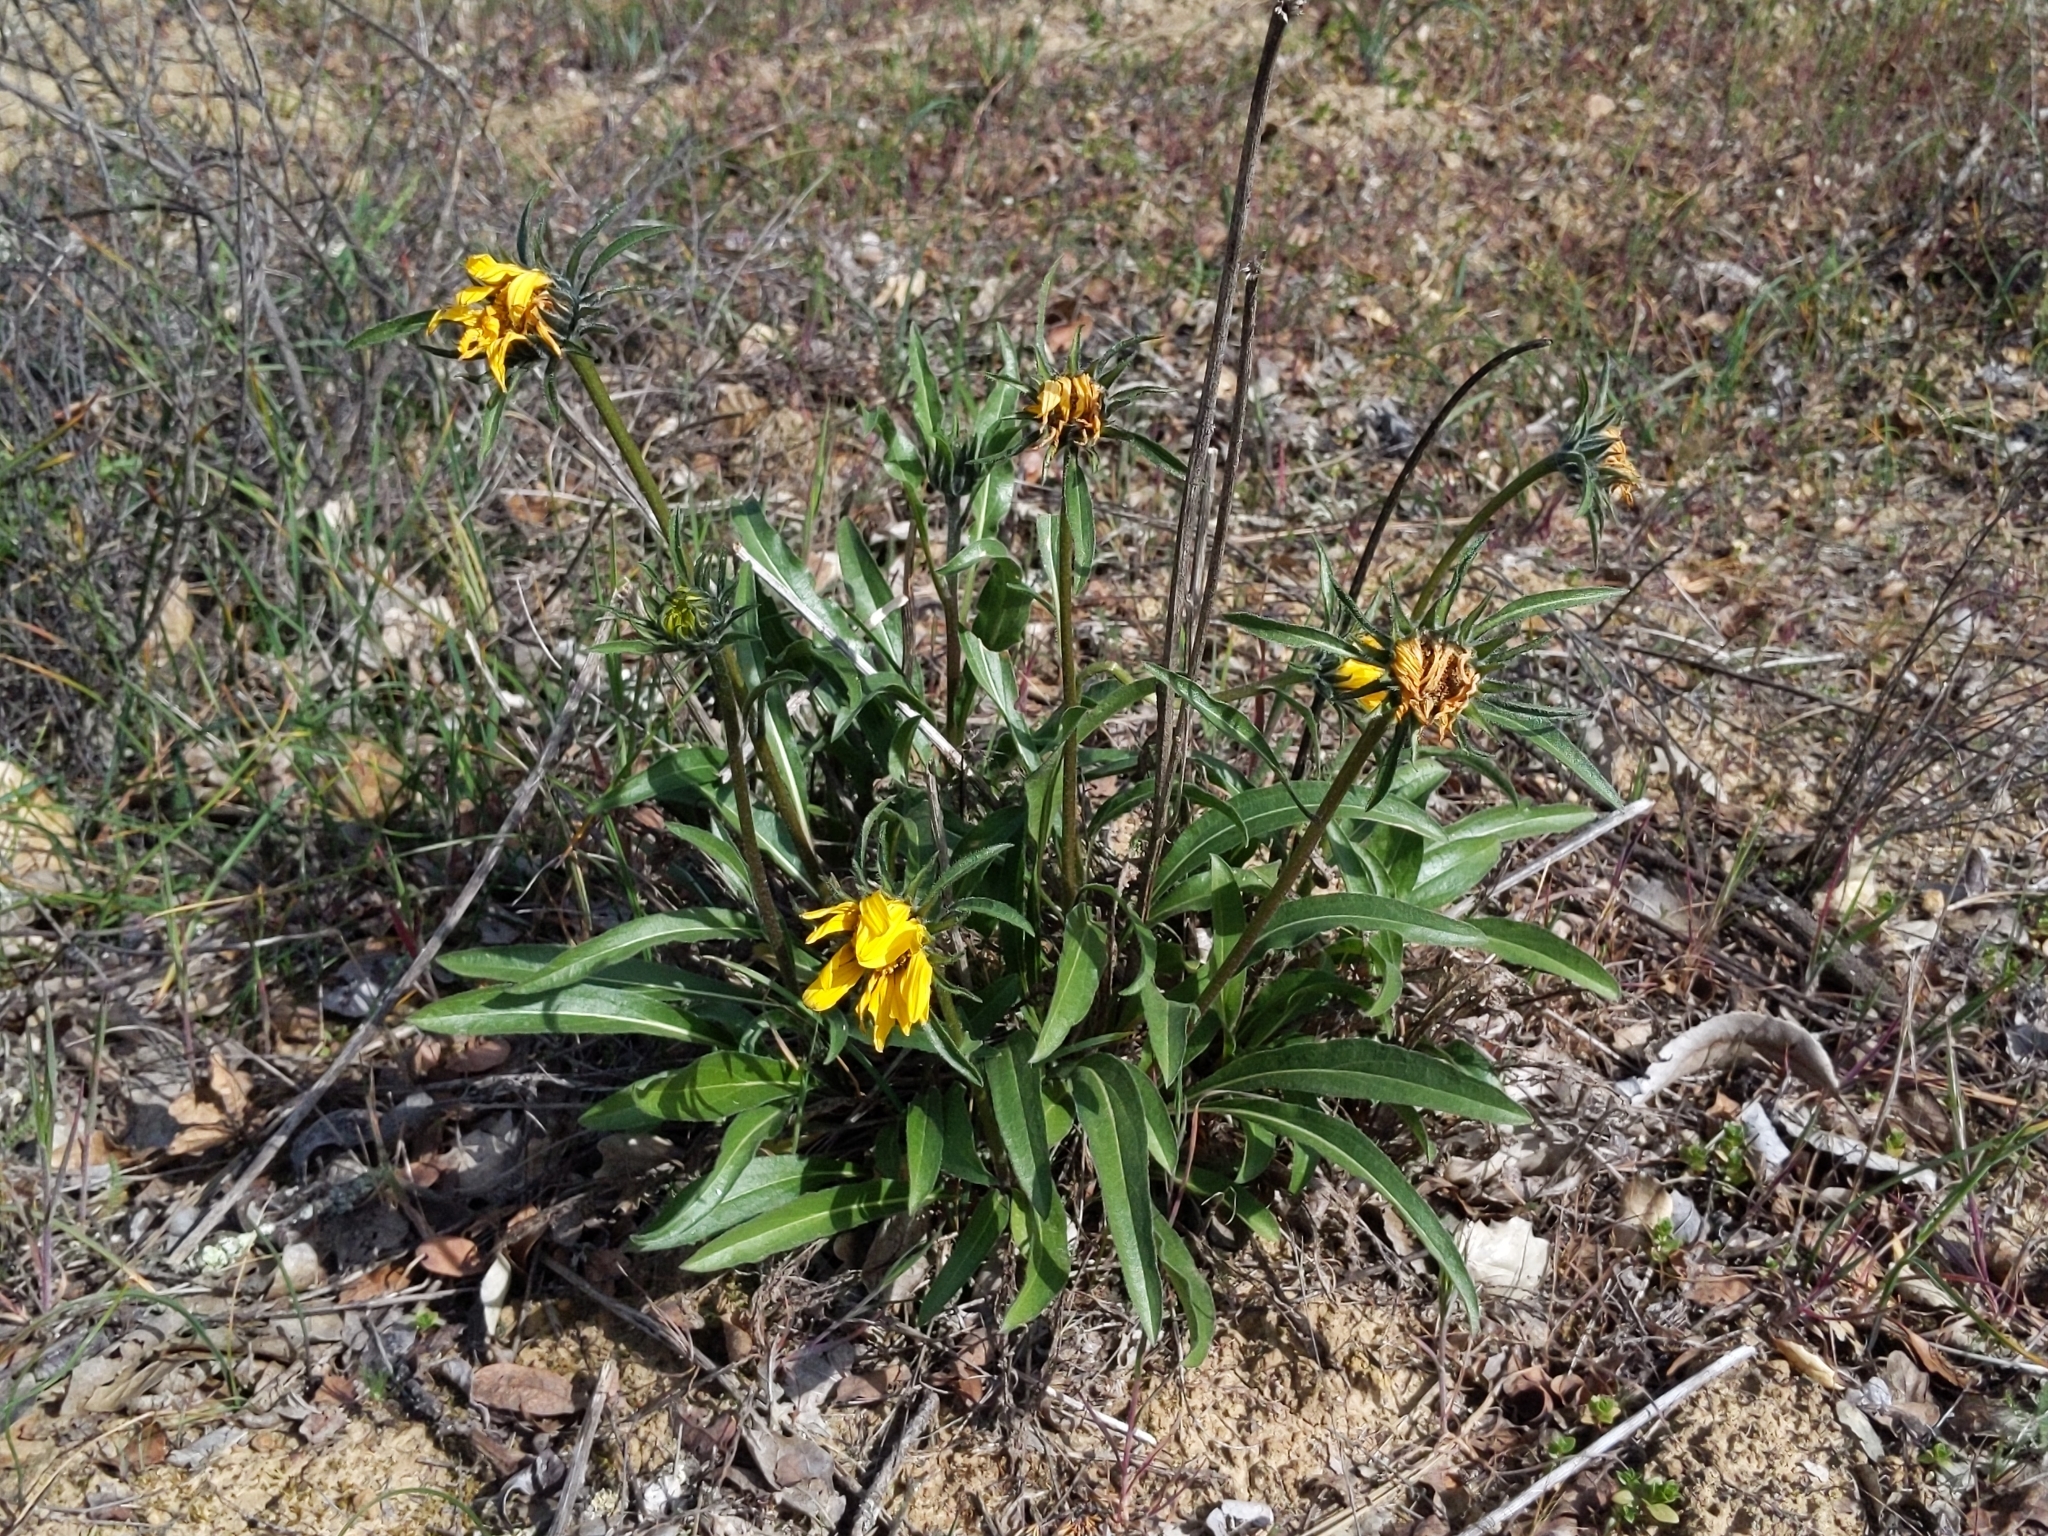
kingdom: Plantae
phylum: Tracheophyta
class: Magnoliopsida
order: Asterales
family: Asteraceae
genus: Helianthella
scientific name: Helianthella castanea
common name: Diablo helianthella
